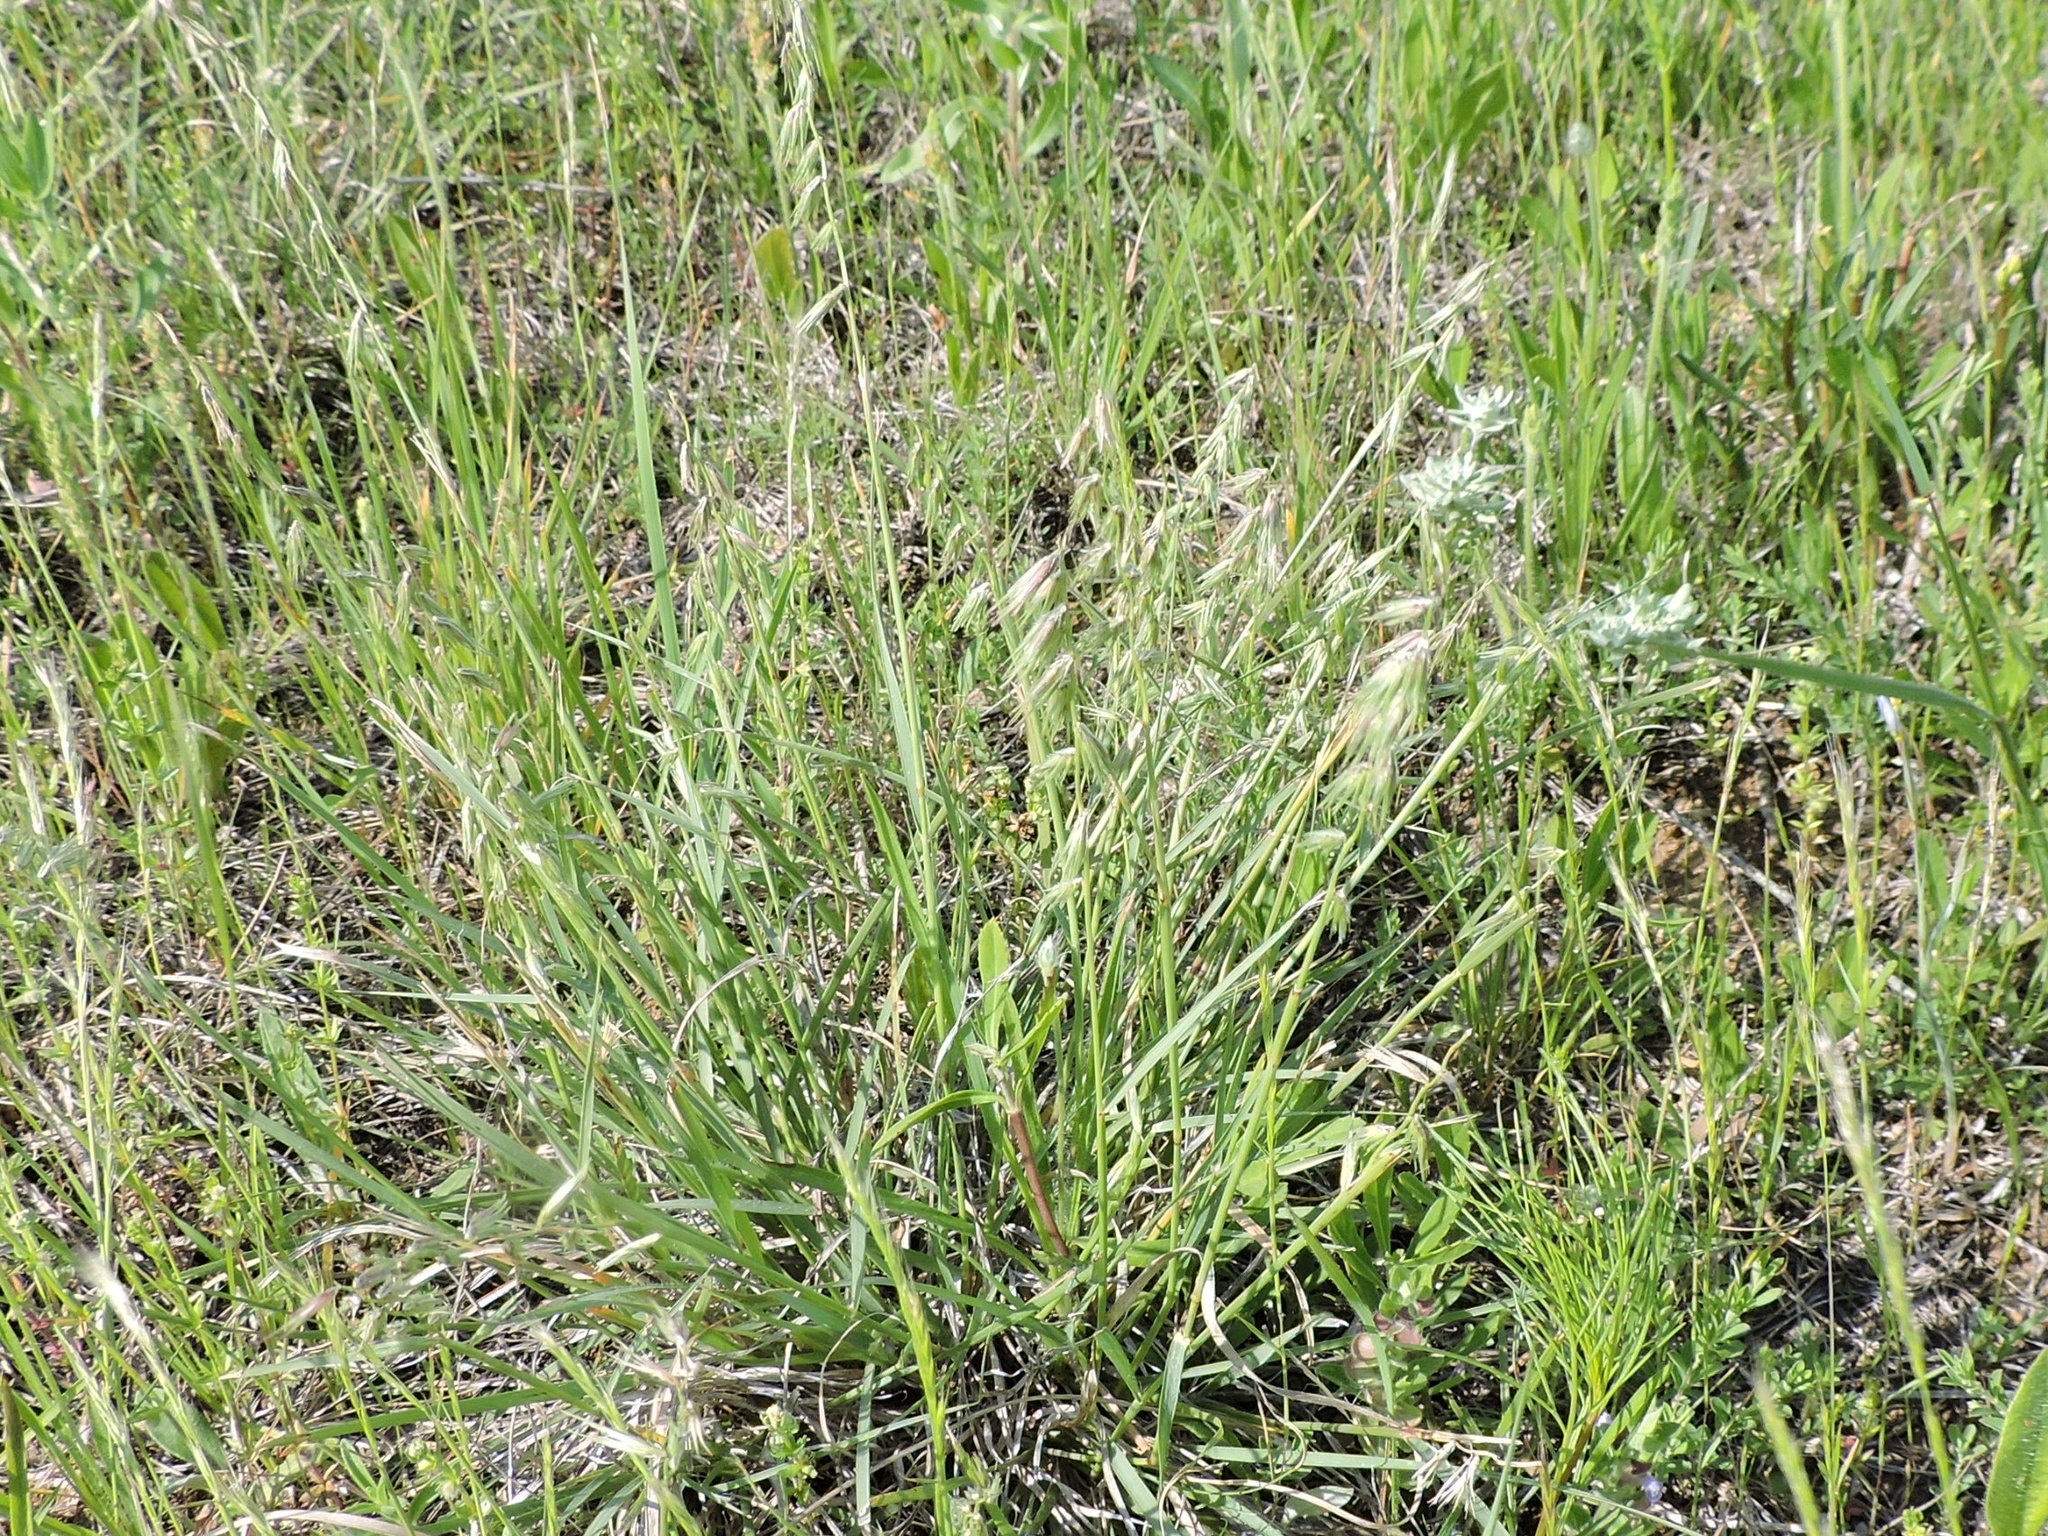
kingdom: Plantae
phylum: Tracheophyta
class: Liliopsida
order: Poales
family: Poaceae
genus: Bouteloua
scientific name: Bouteloua rigidiseta
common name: Texas grama
